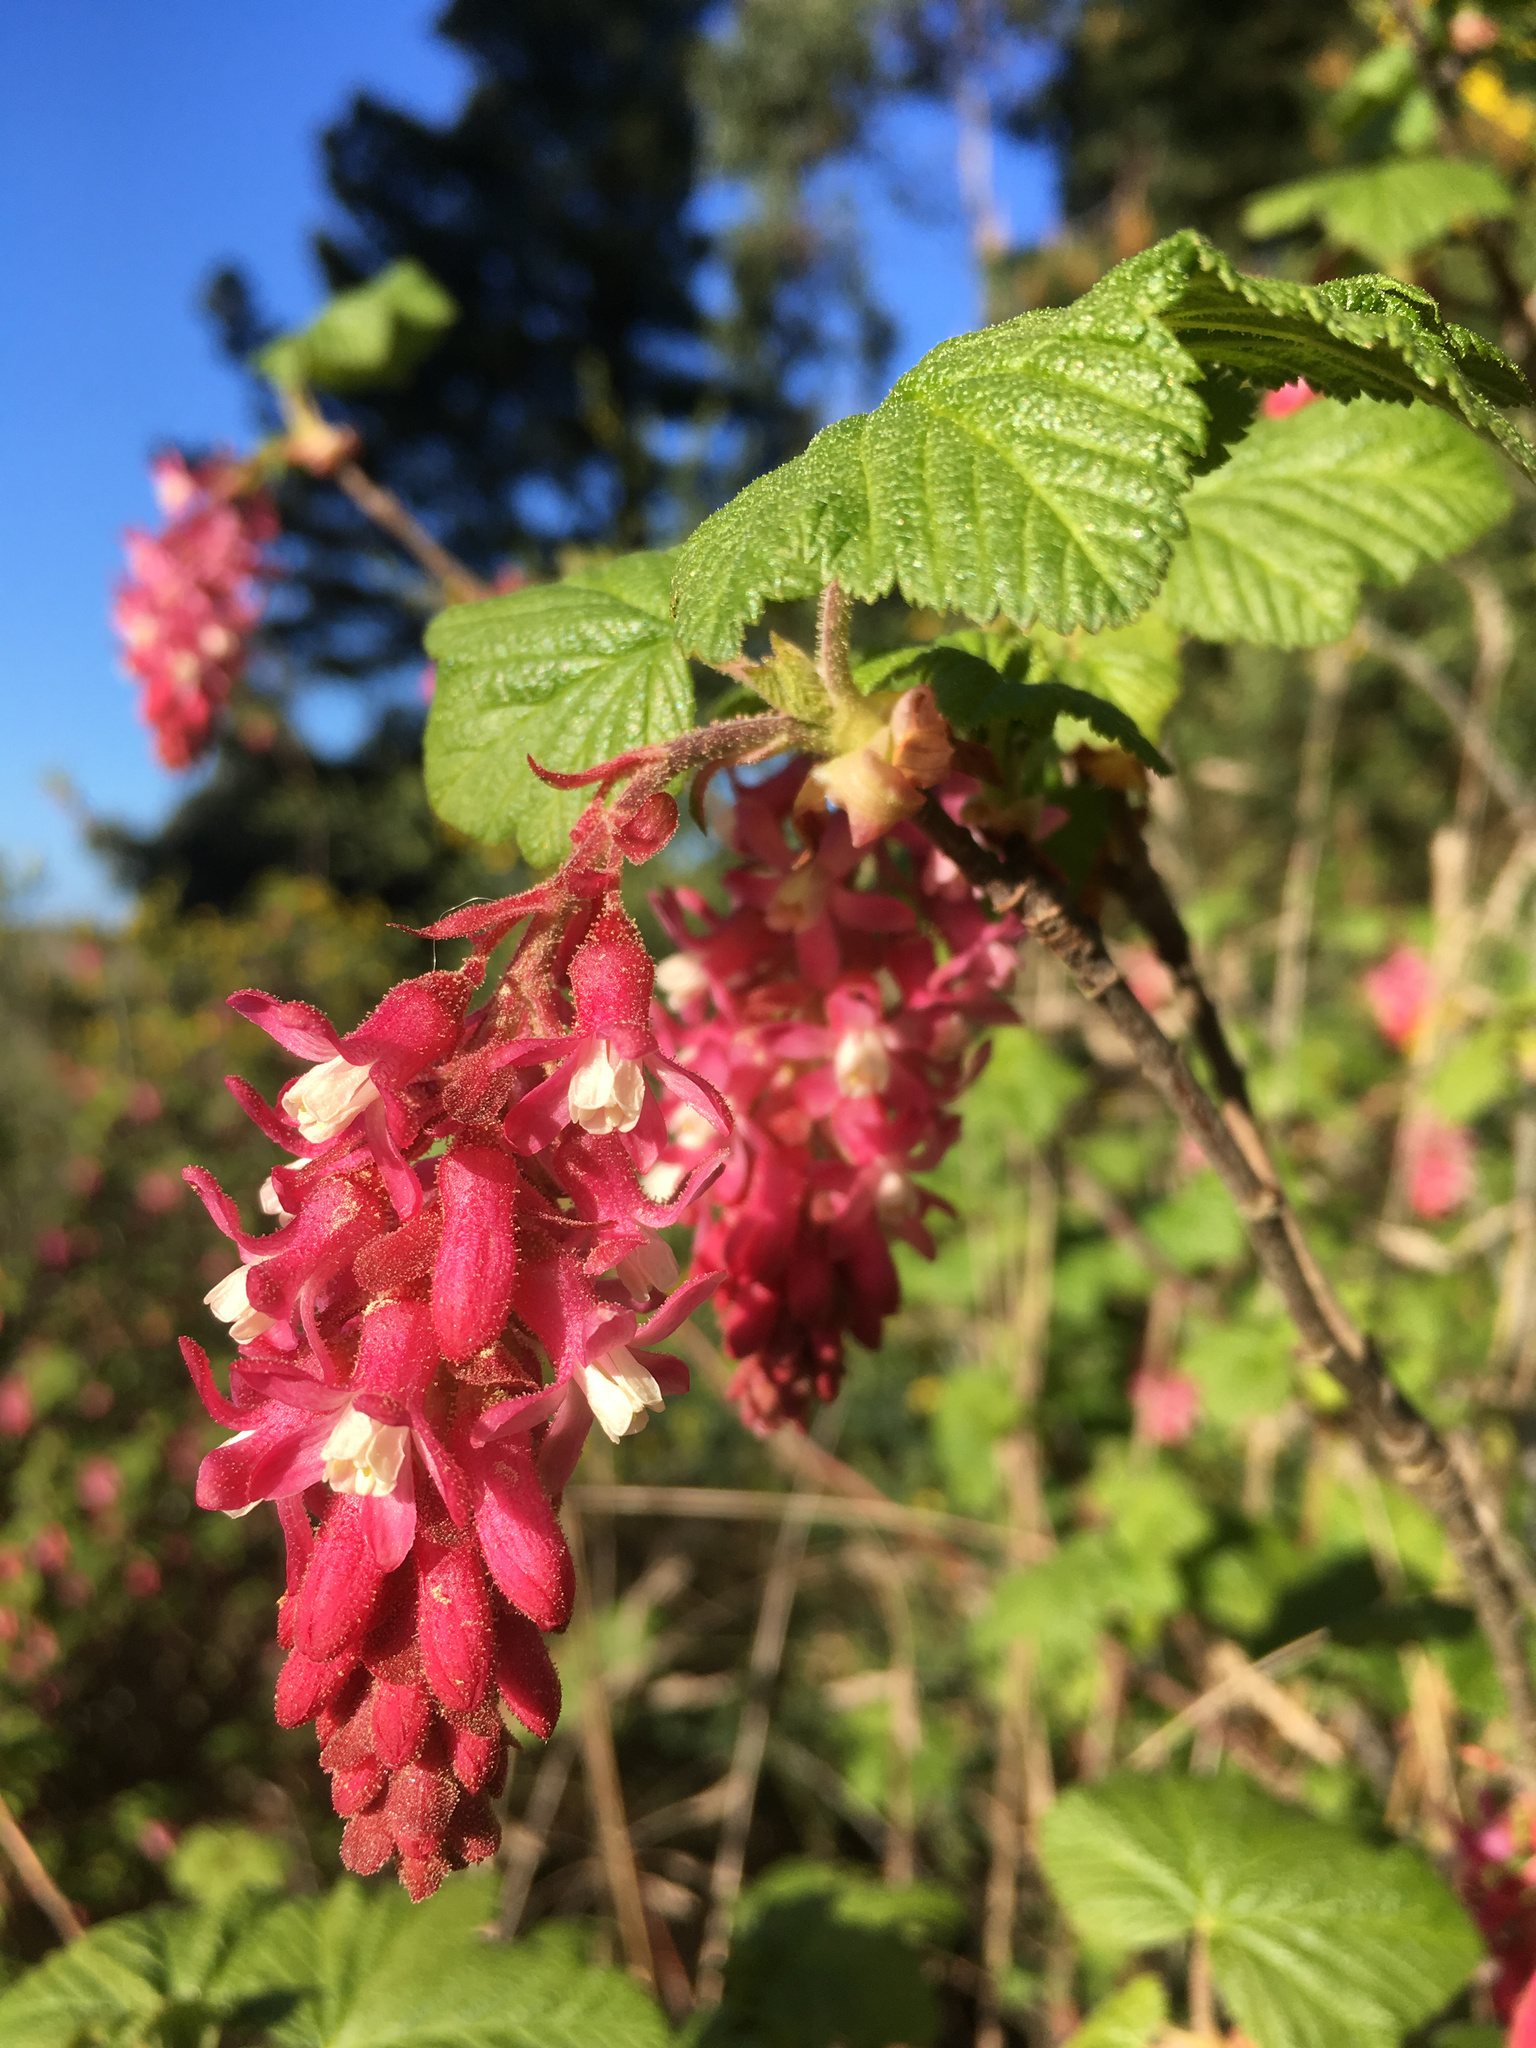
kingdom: Plantae
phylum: Tracheophyta
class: Magnoliopsida
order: Saxifragales
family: Grossulariaceae
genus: Ribes
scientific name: Ribes sanguineum
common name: Flowering currant
